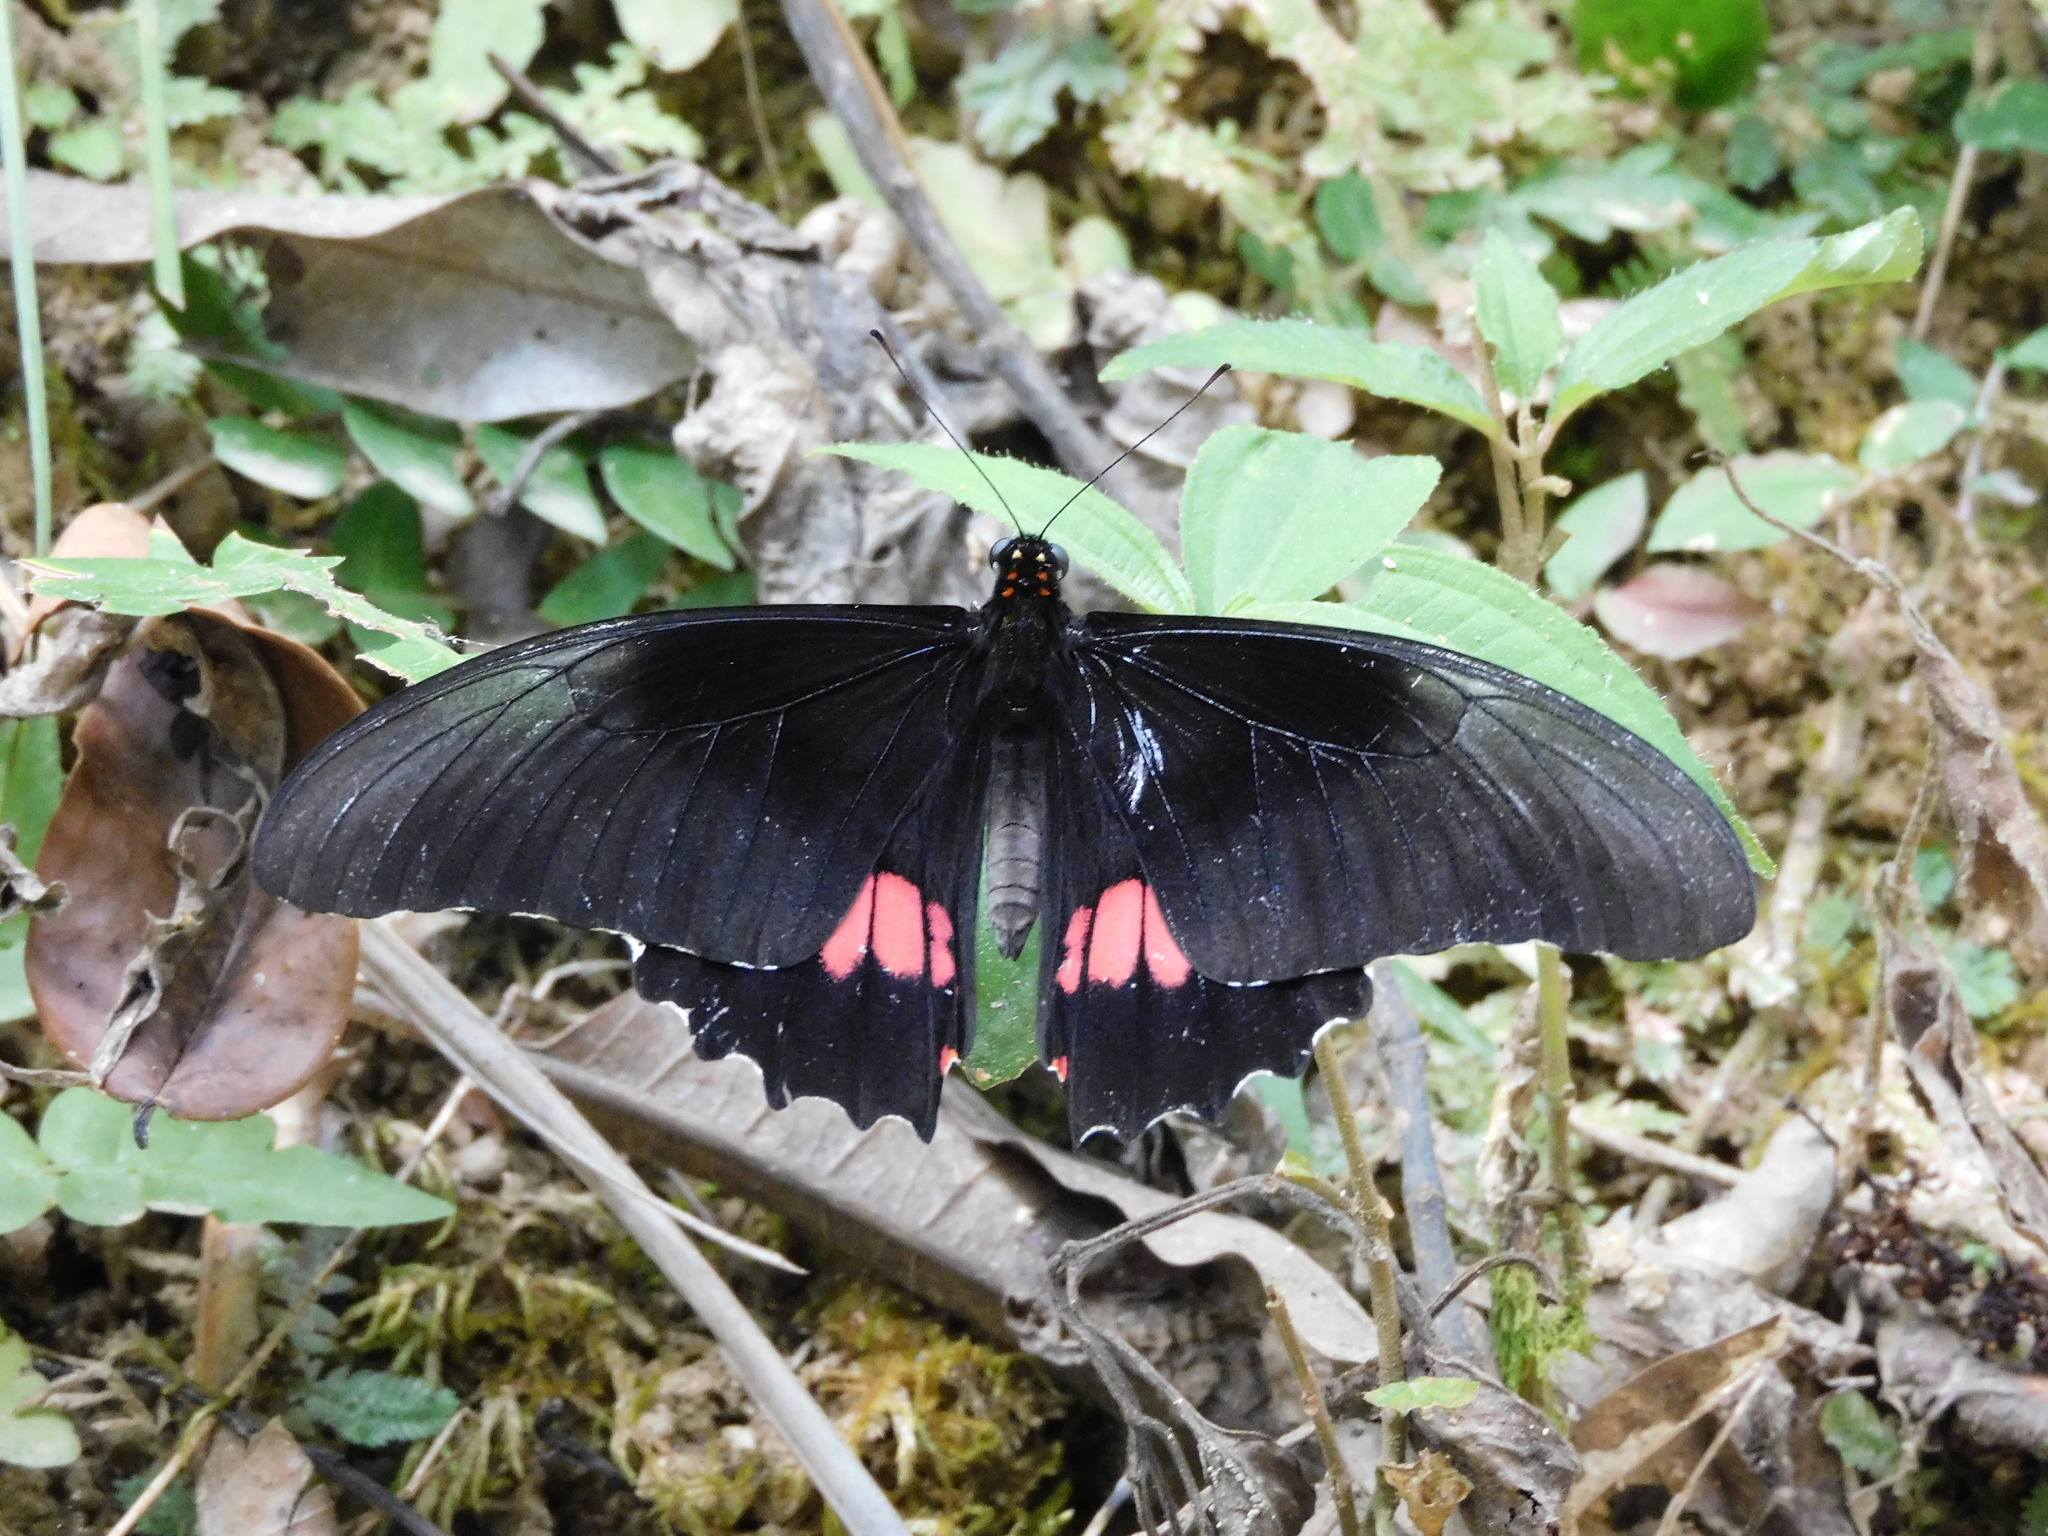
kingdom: Animalia
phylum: Arthropoda
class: Insecta
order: Lepidoptera
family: Papilionidae
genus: Papilio
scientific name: Papilio anchisiades
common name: Idaes swallowtail
